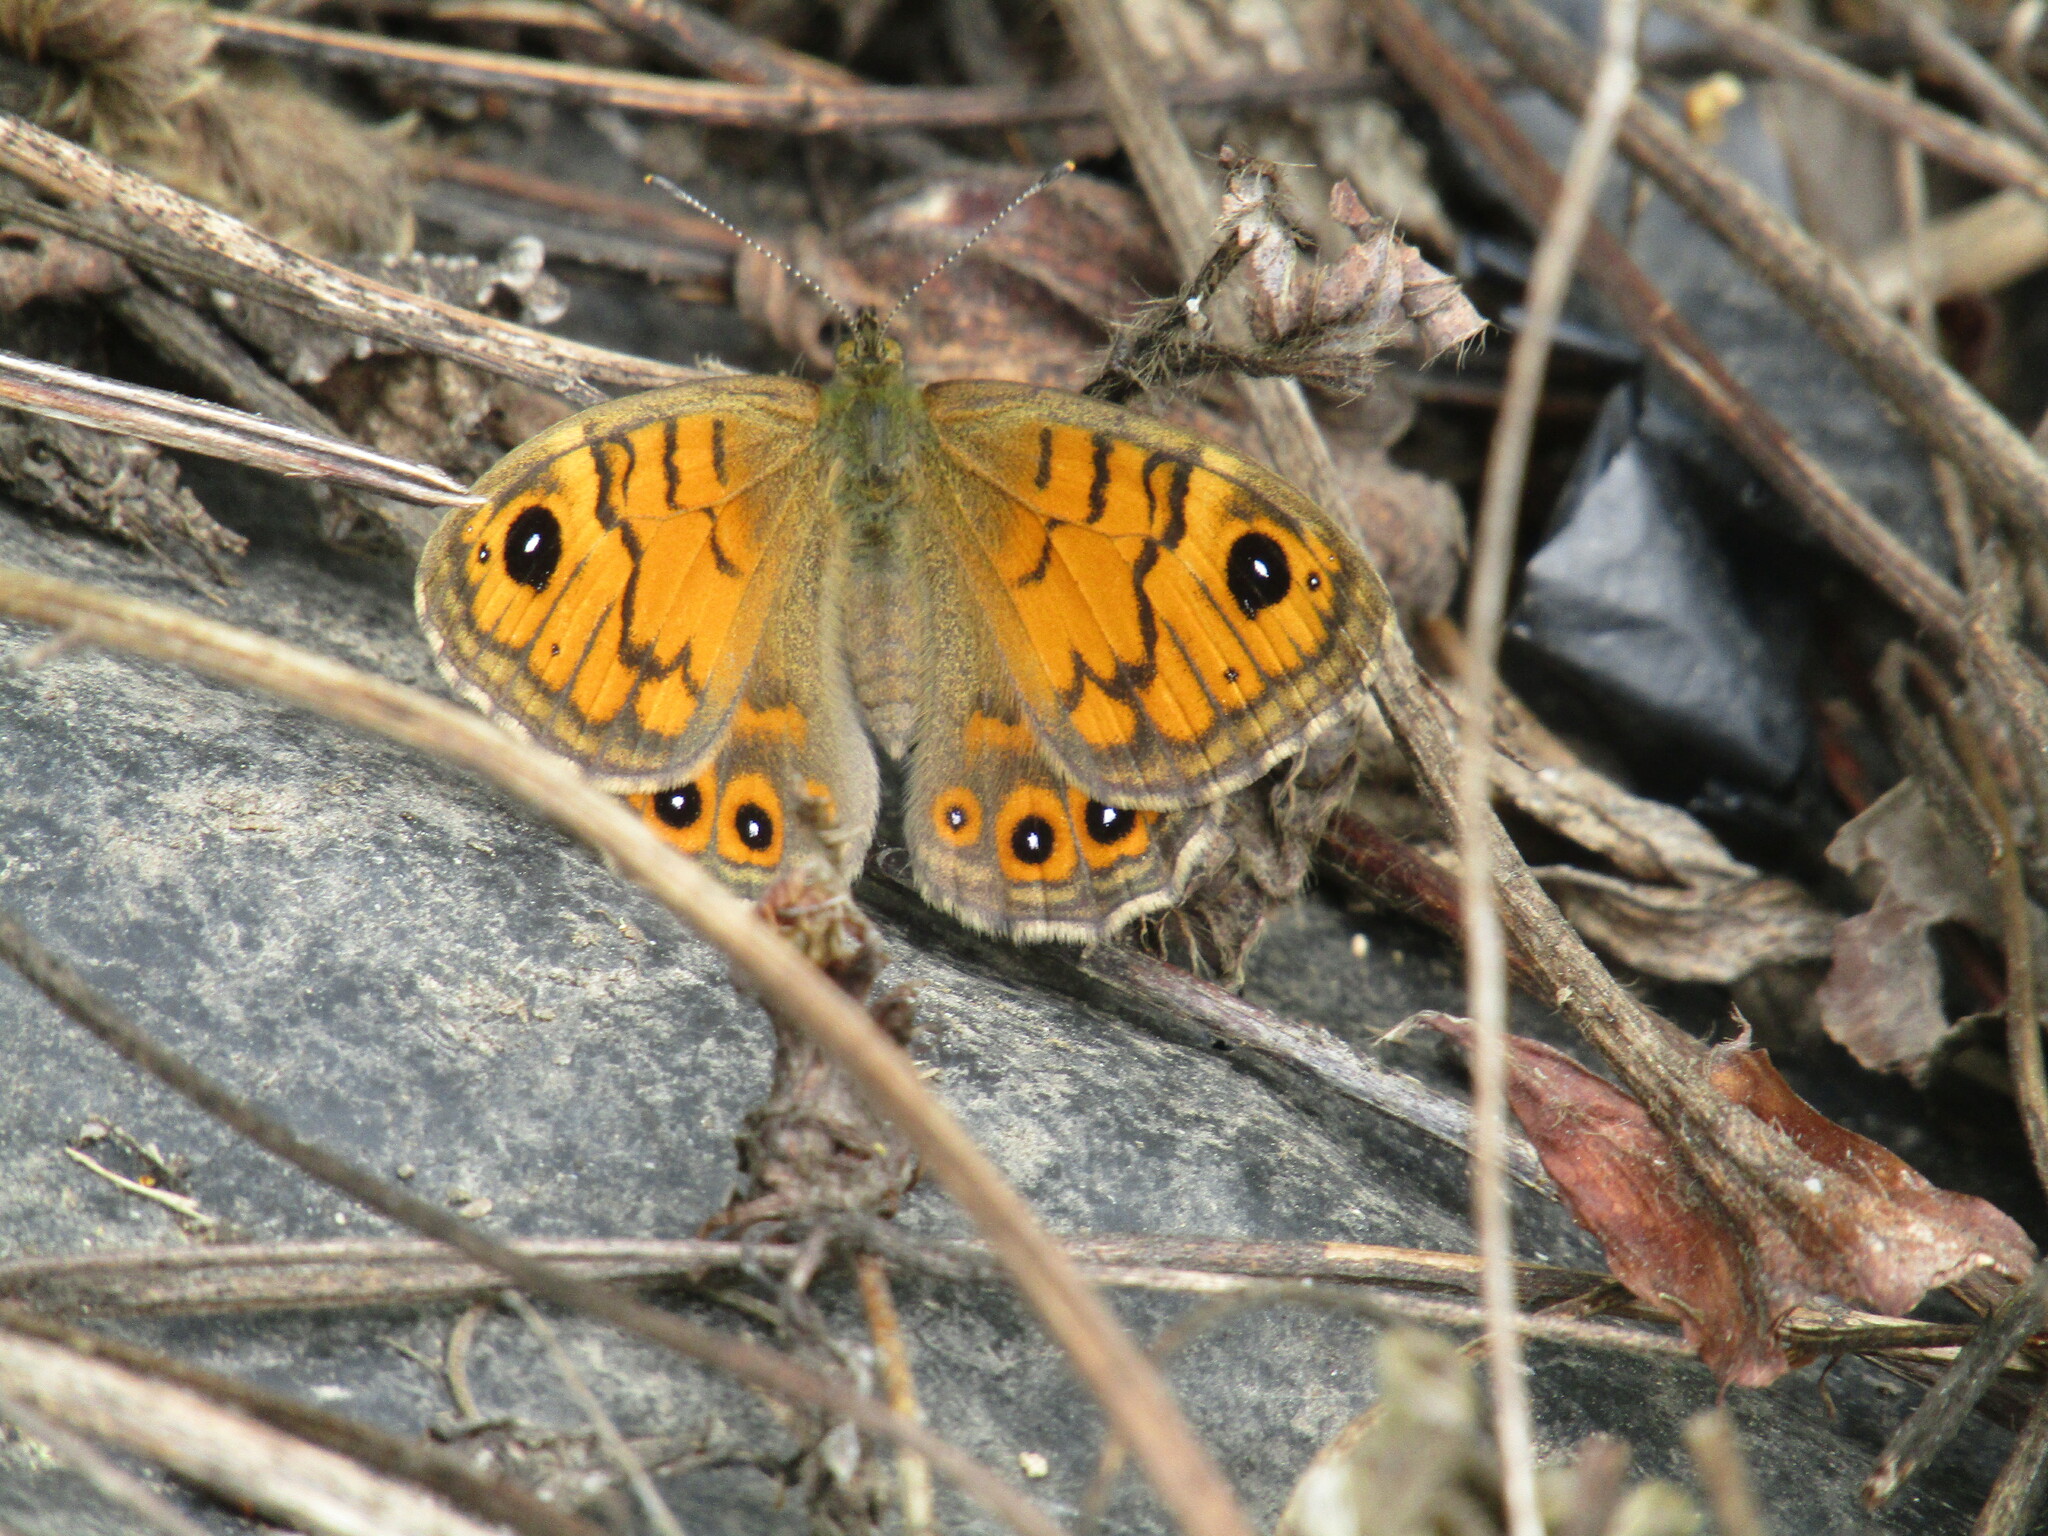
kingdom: Animalia
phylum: Arthropoda
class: Insecta
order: Lepidoptera
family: Nymphalidae
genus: Pararge
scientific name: Pararge Lasiommata megera
